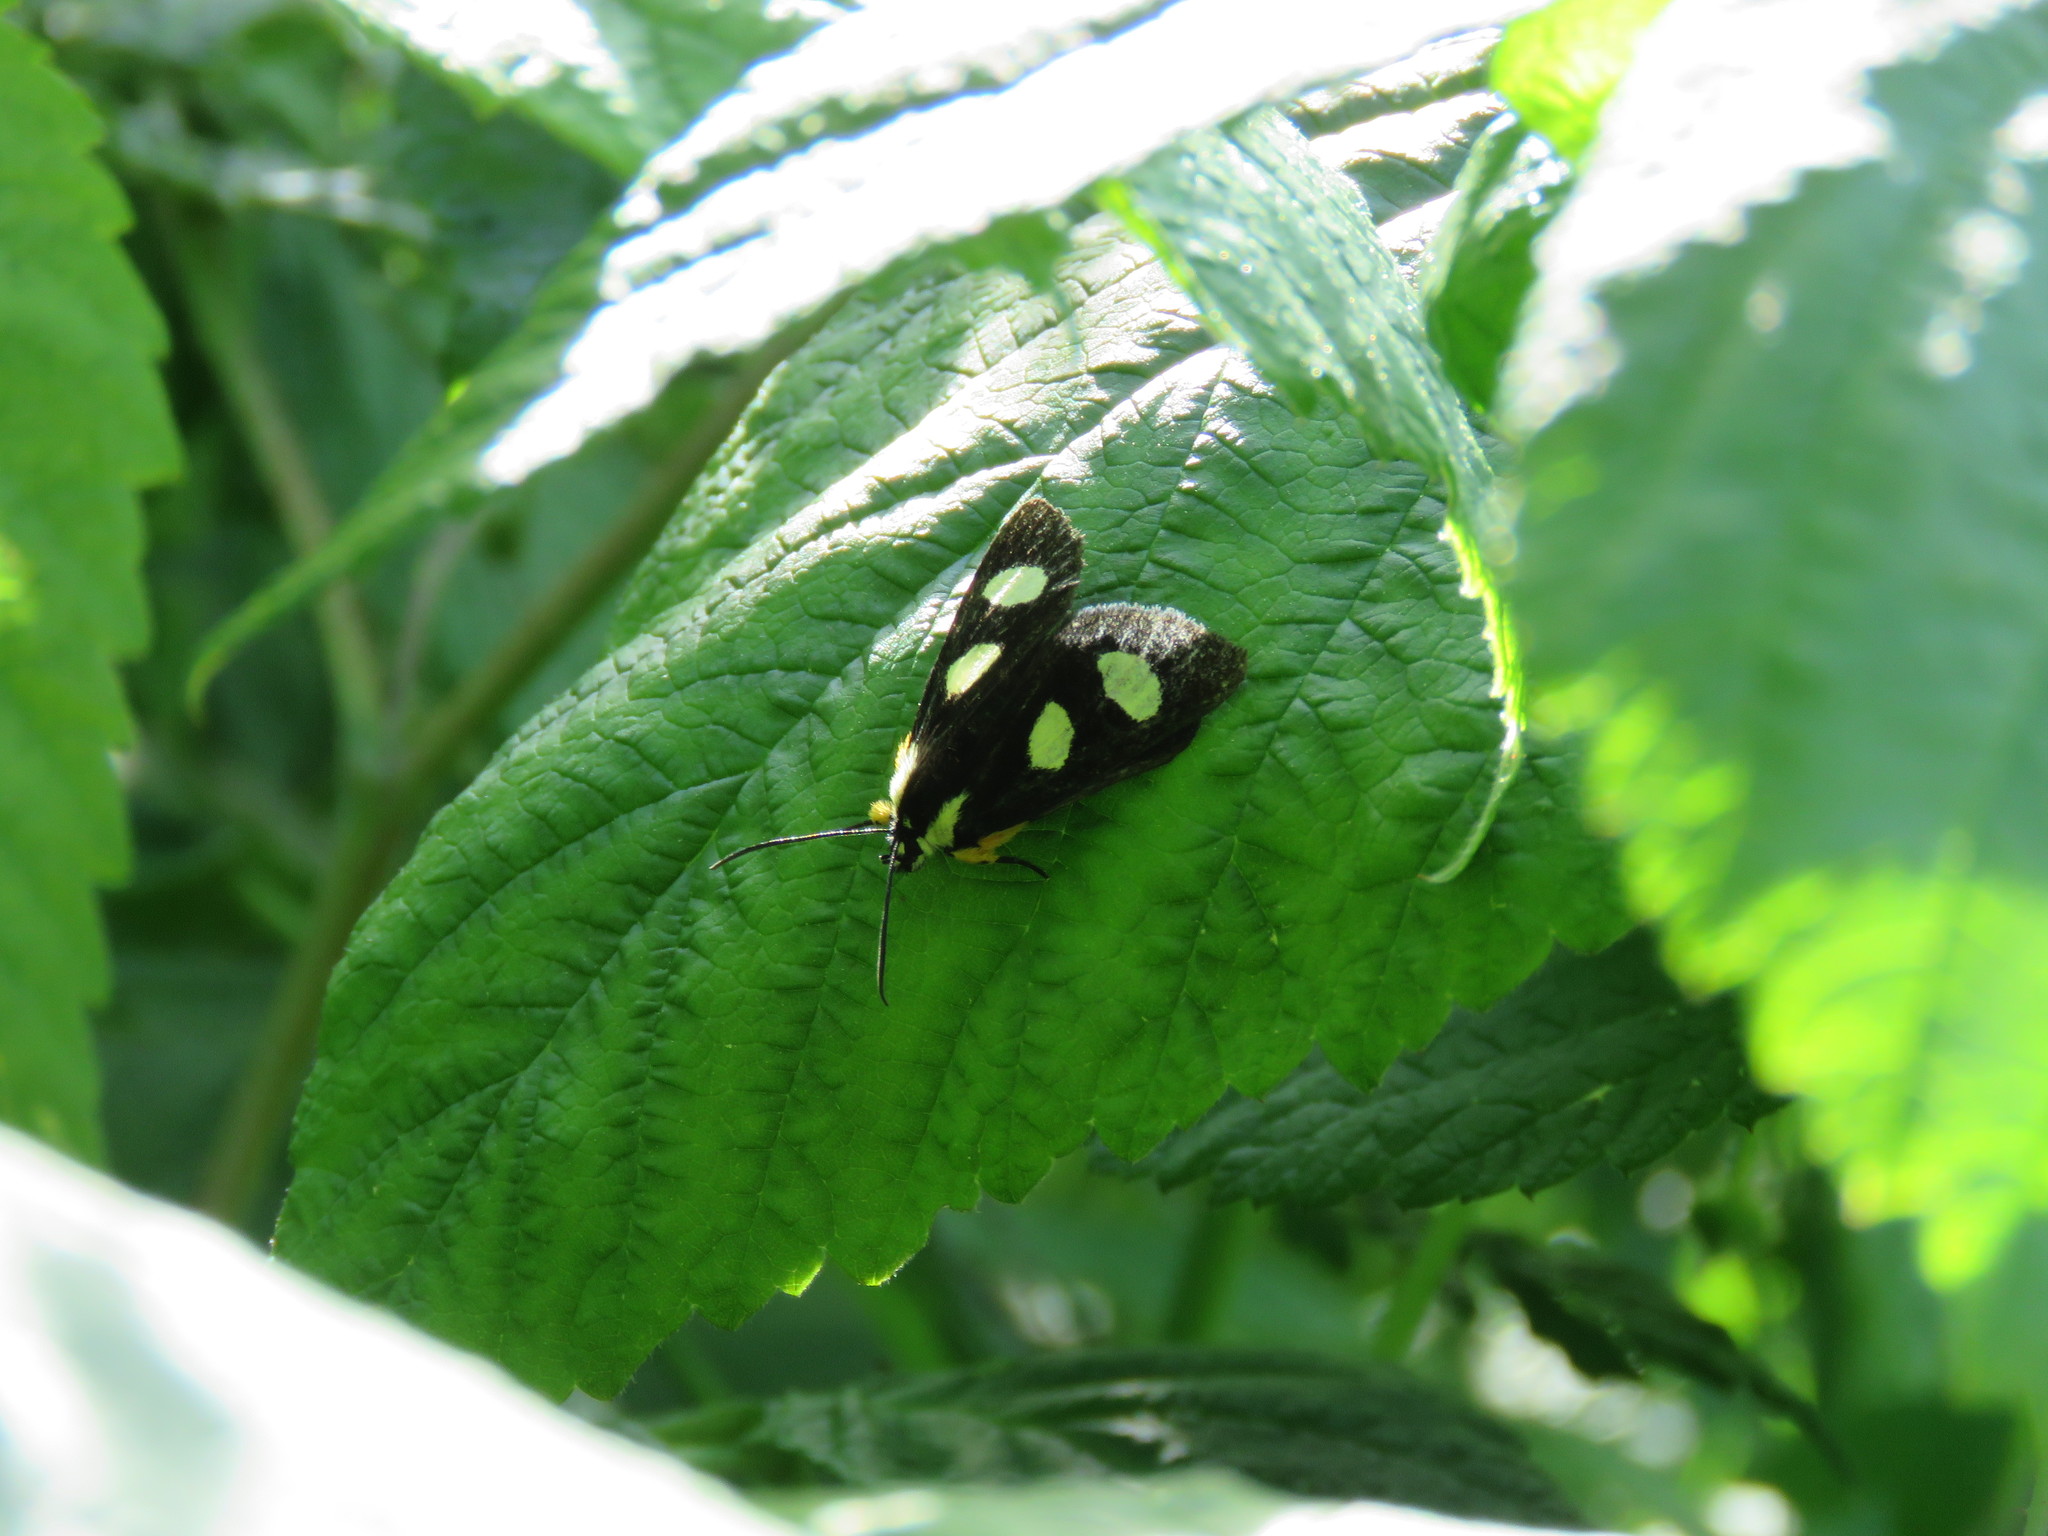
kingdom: Animalia
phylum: Arthropoda
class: Insecta
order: Lepidoptera
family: Noctuidae
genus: Alypia
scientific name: Alypia octomaculata
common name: Eight-spotted forester
